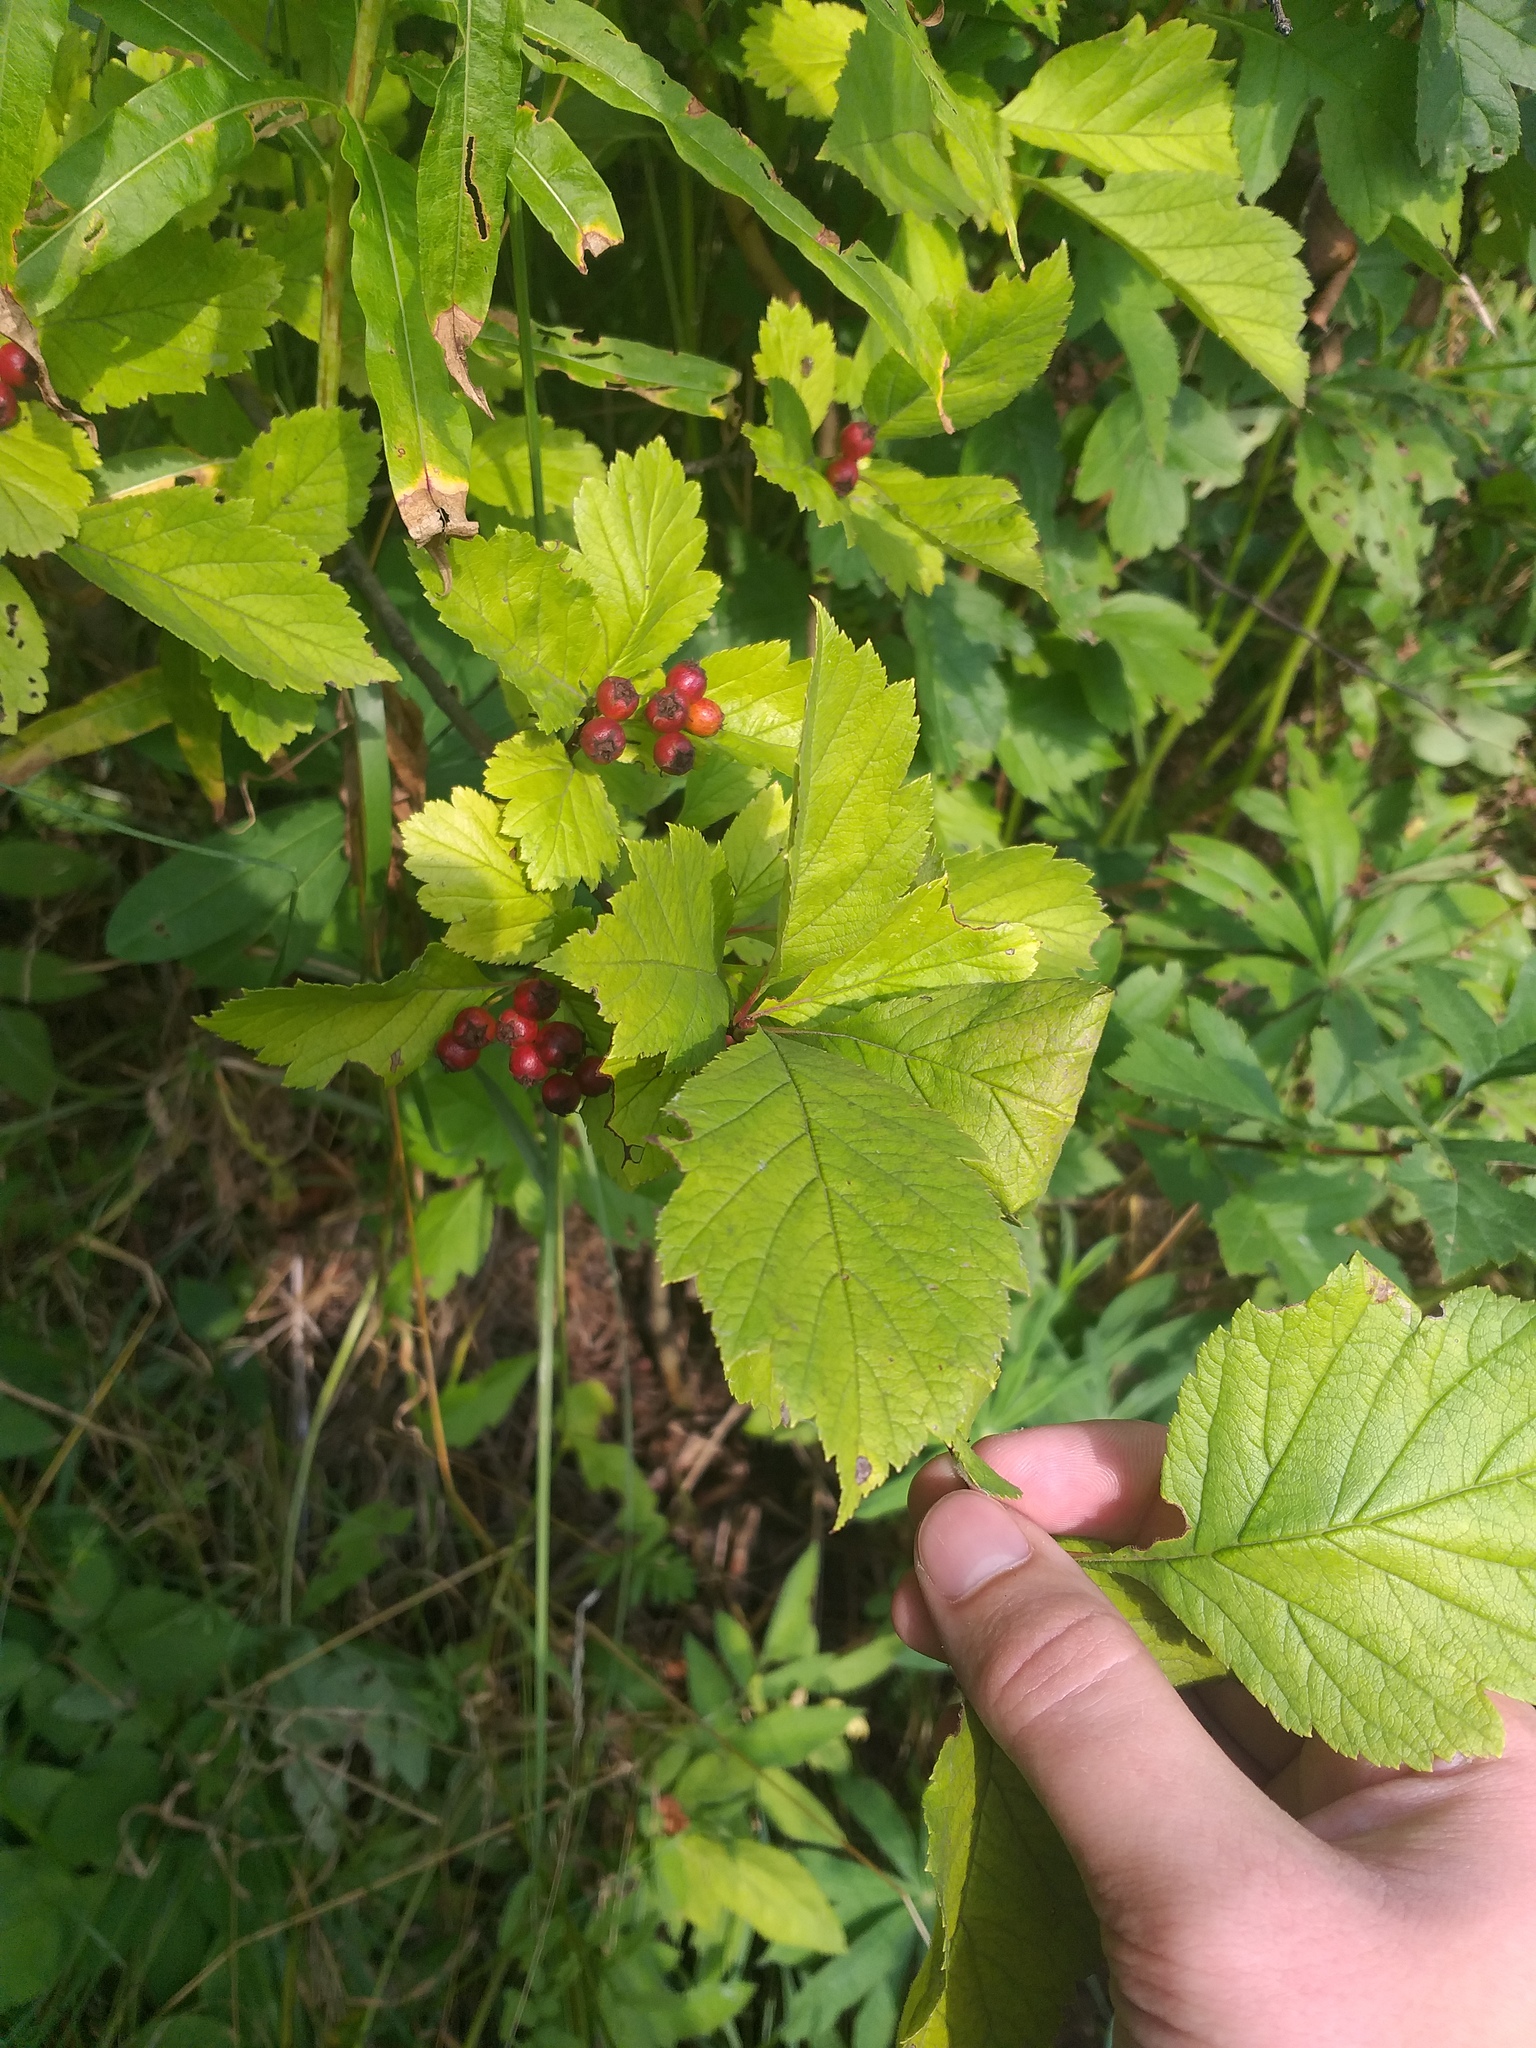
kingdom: Plantae
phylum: Tracheophyta
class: Magnoliopsida
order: Rosales
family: Rosaceae
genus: Crataegus
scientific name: Crataegus sanguinea
